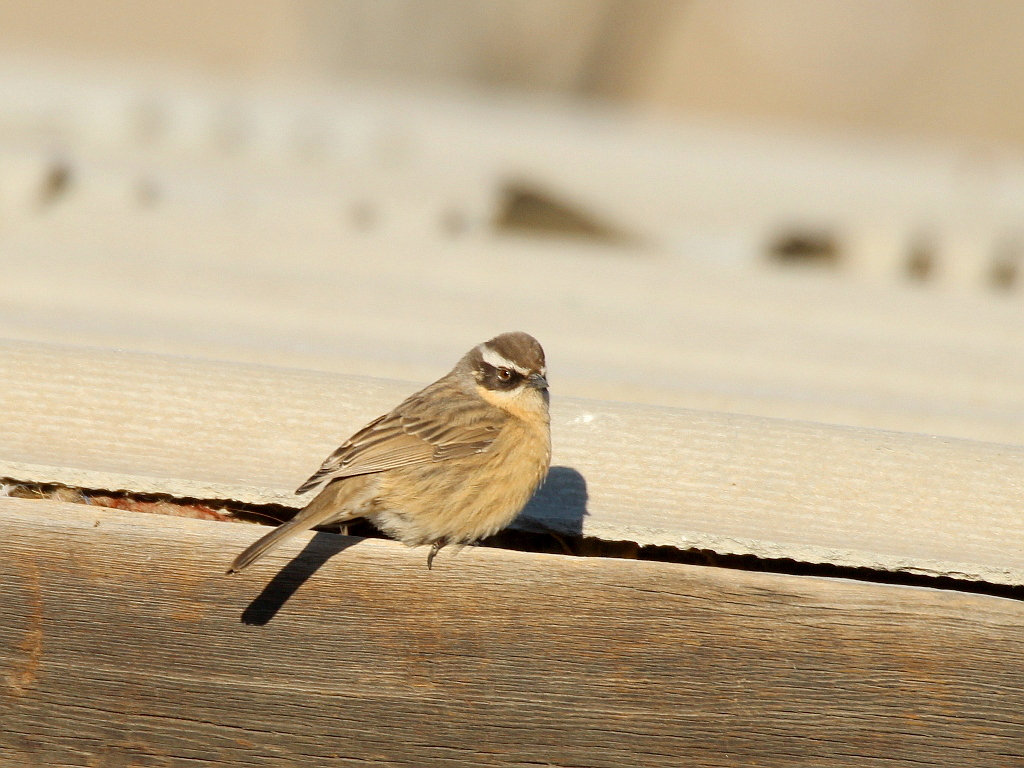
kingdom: Animalia
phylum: Chordata
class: Aves
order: Passeriformes
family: Prunellidae
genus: Prunella
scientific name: Prunella fulvescens
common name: Brown accentor
